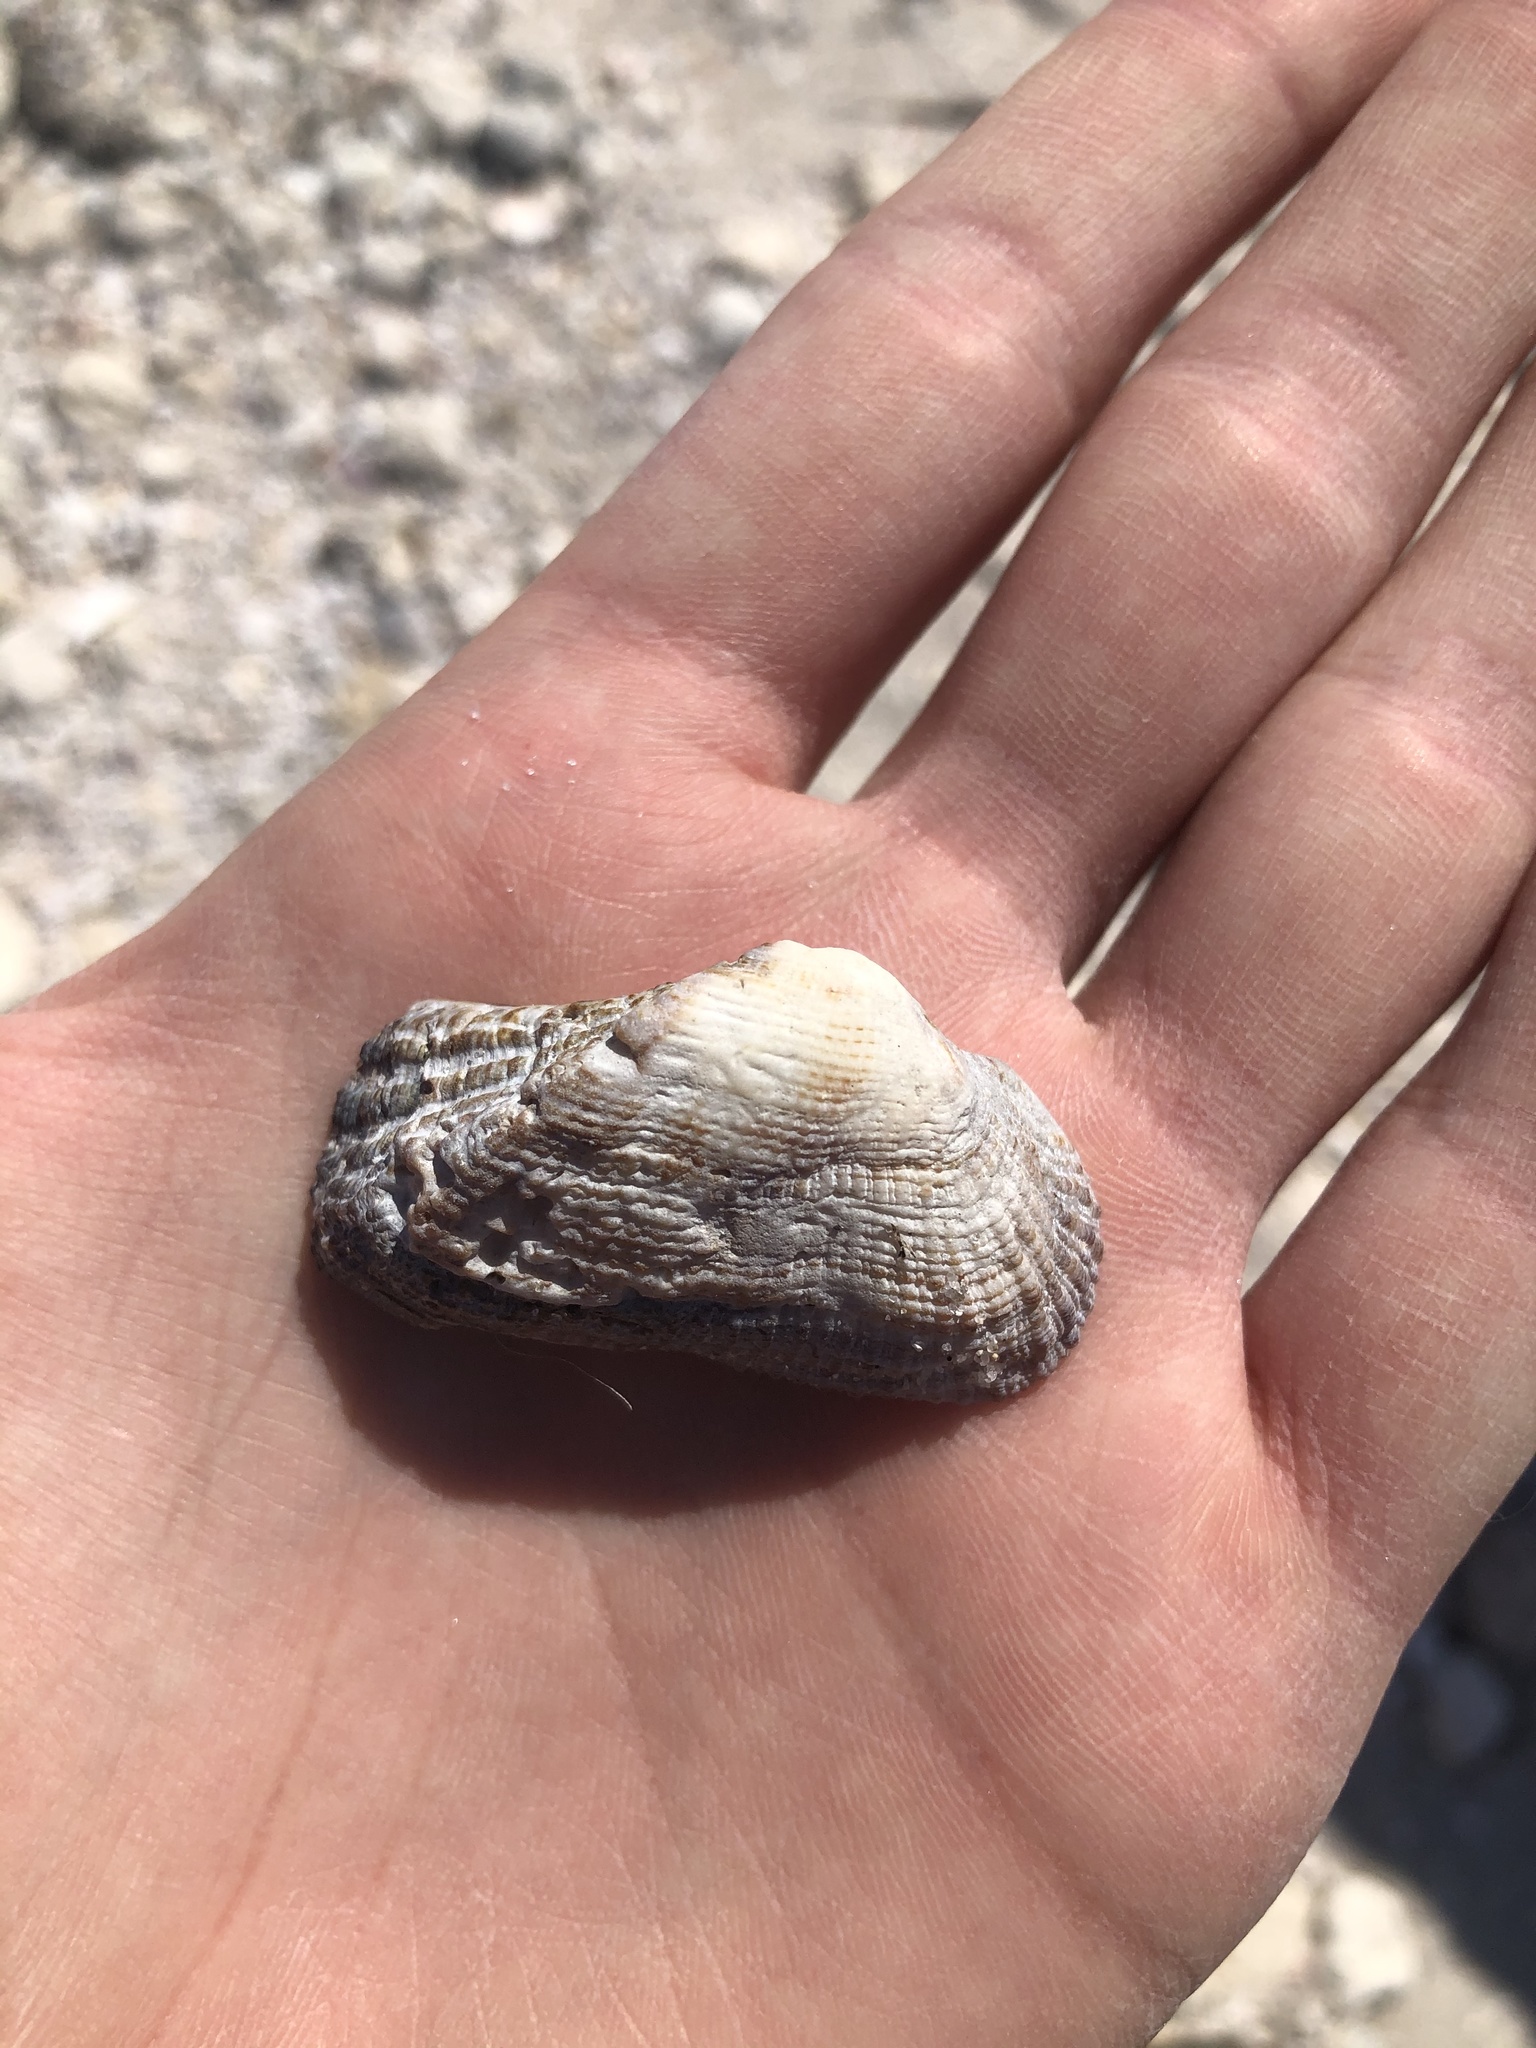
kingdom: Animalia
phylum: Mollusca
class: Bivalvia
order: Arcida
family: Arcidae
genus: Lamarcka
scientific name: Lamarcka imbricata
